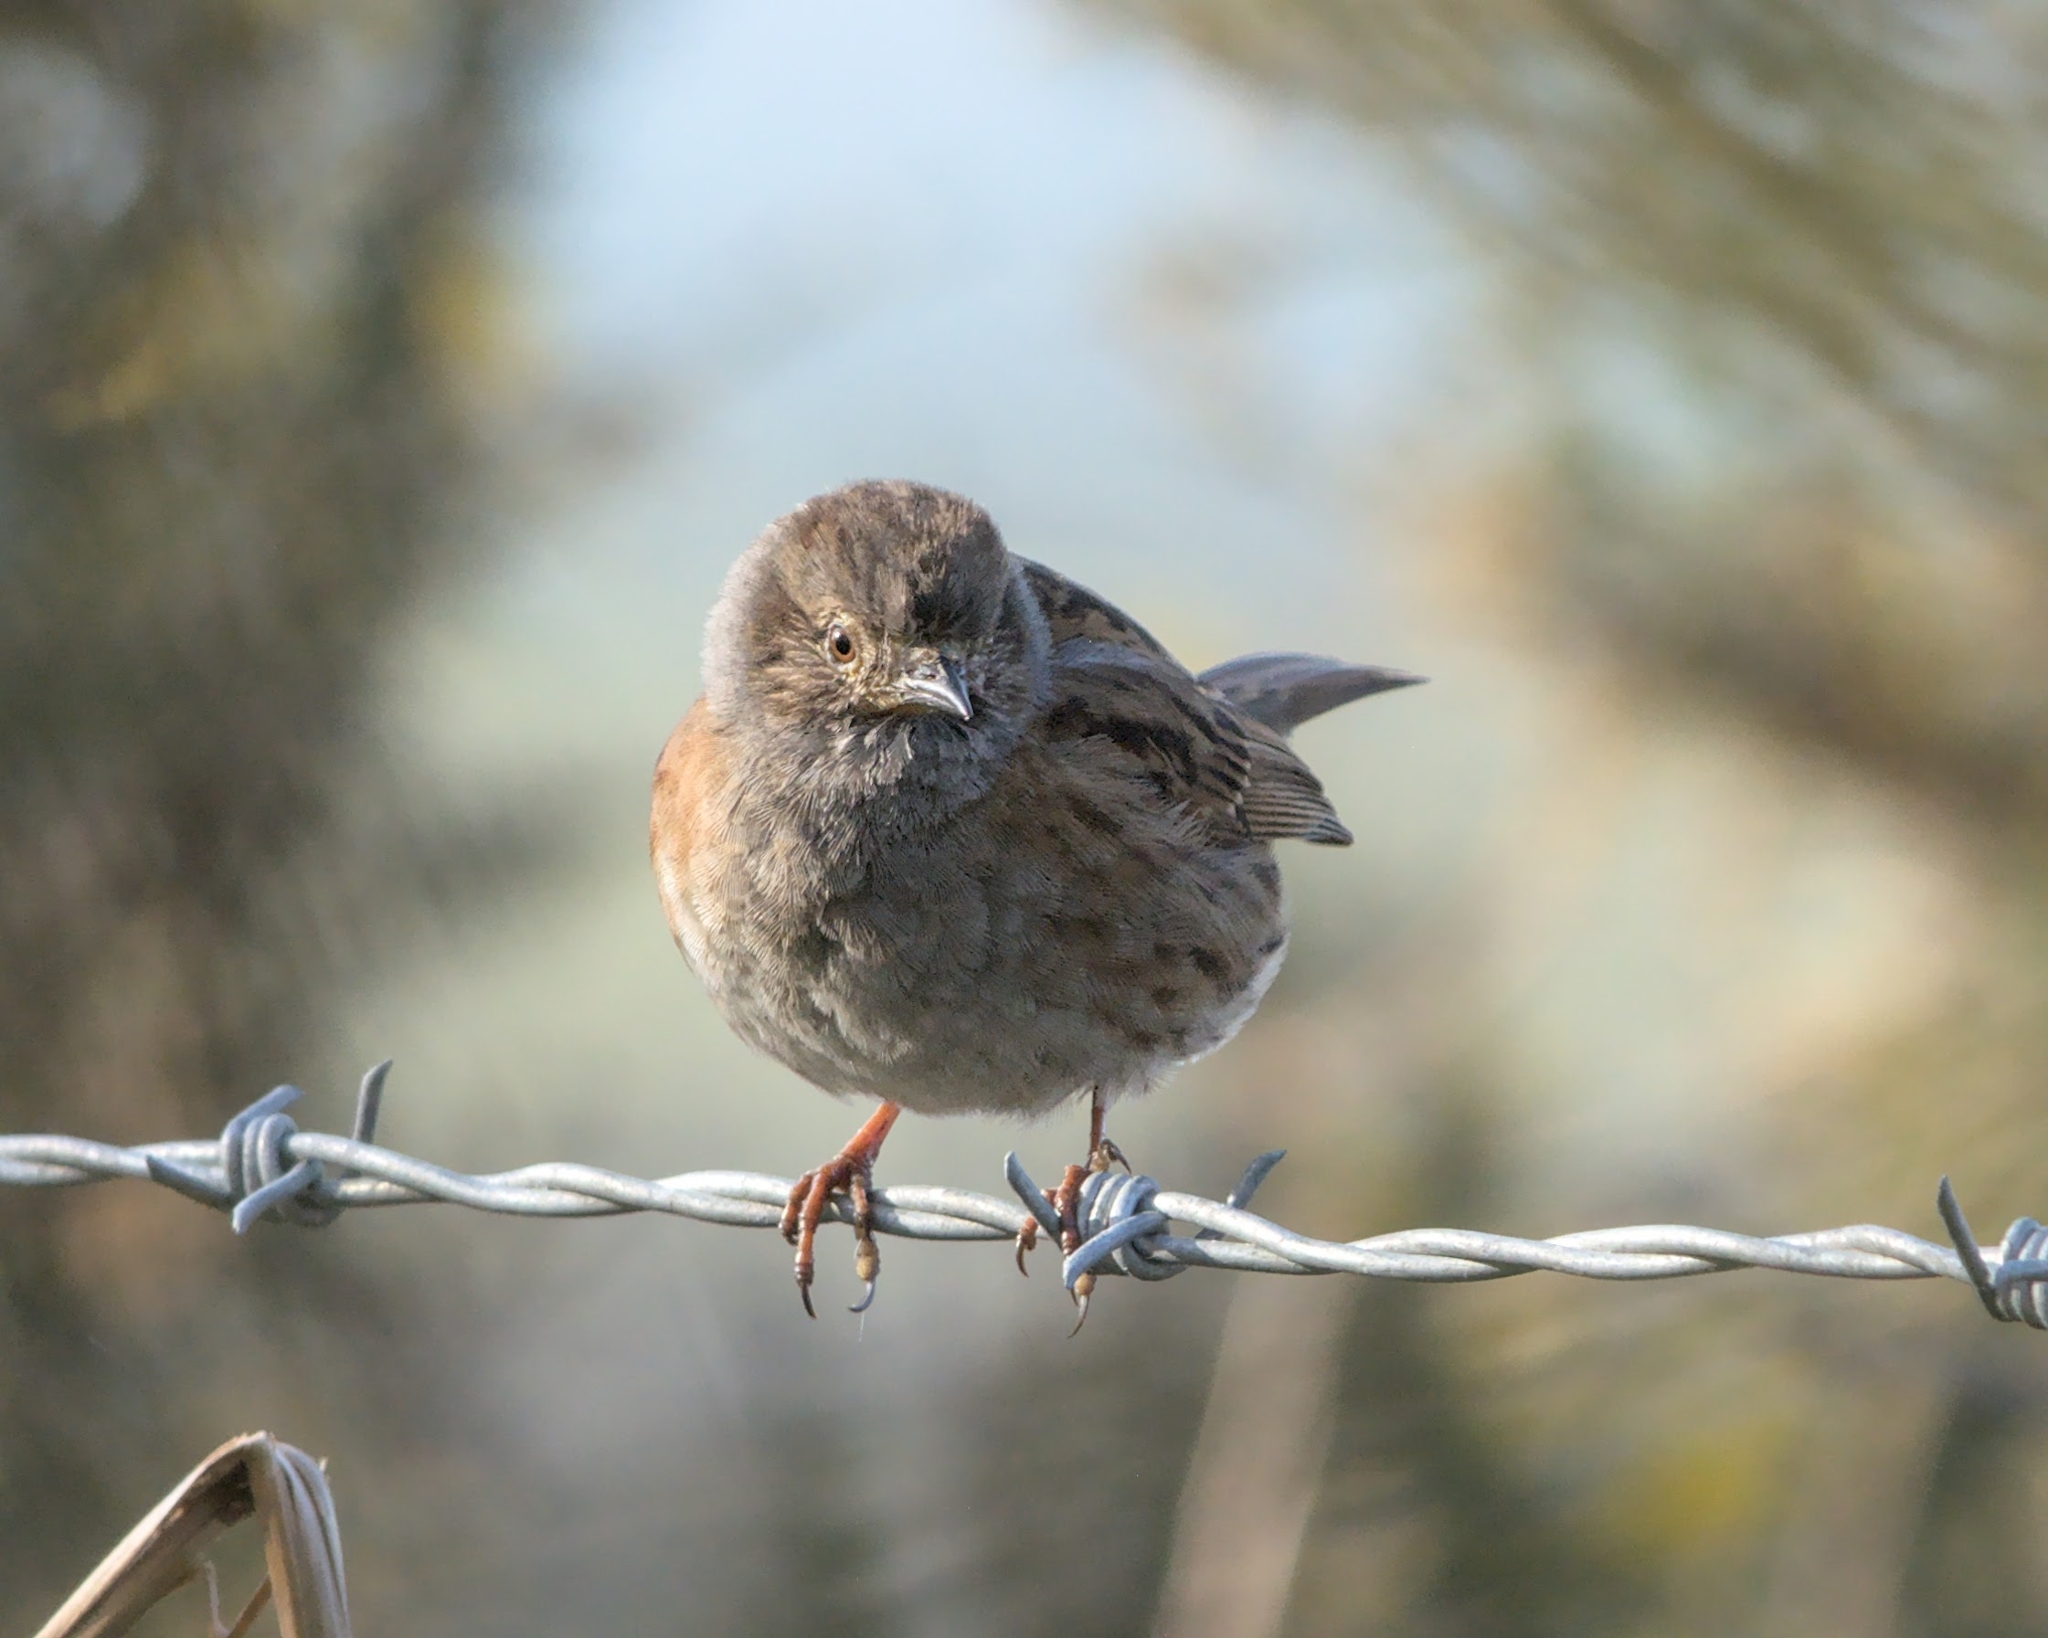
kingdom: Animalia
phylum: Chordata
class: Aves
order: Passeriformes
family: Prunellidae
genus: Prunella
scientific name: Prunella modularis
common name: Dunnock
